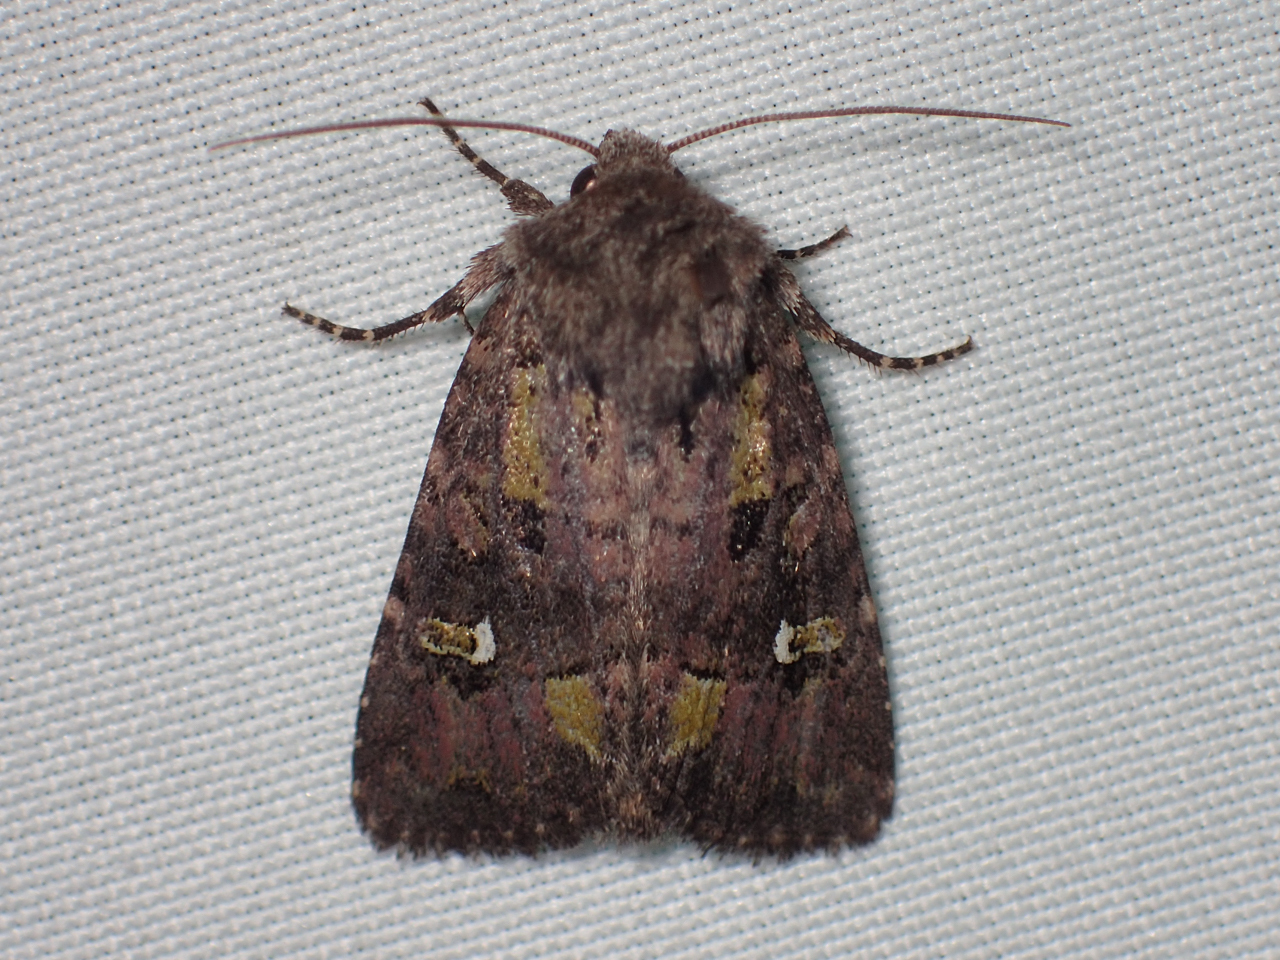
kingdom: Animalia
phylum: Arthropoda
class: Insecta
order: Lepidoptera
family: Noctuidae
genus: Lacinipolia
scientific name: Lacinipolia renigera
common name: Kidney-spotted minor
